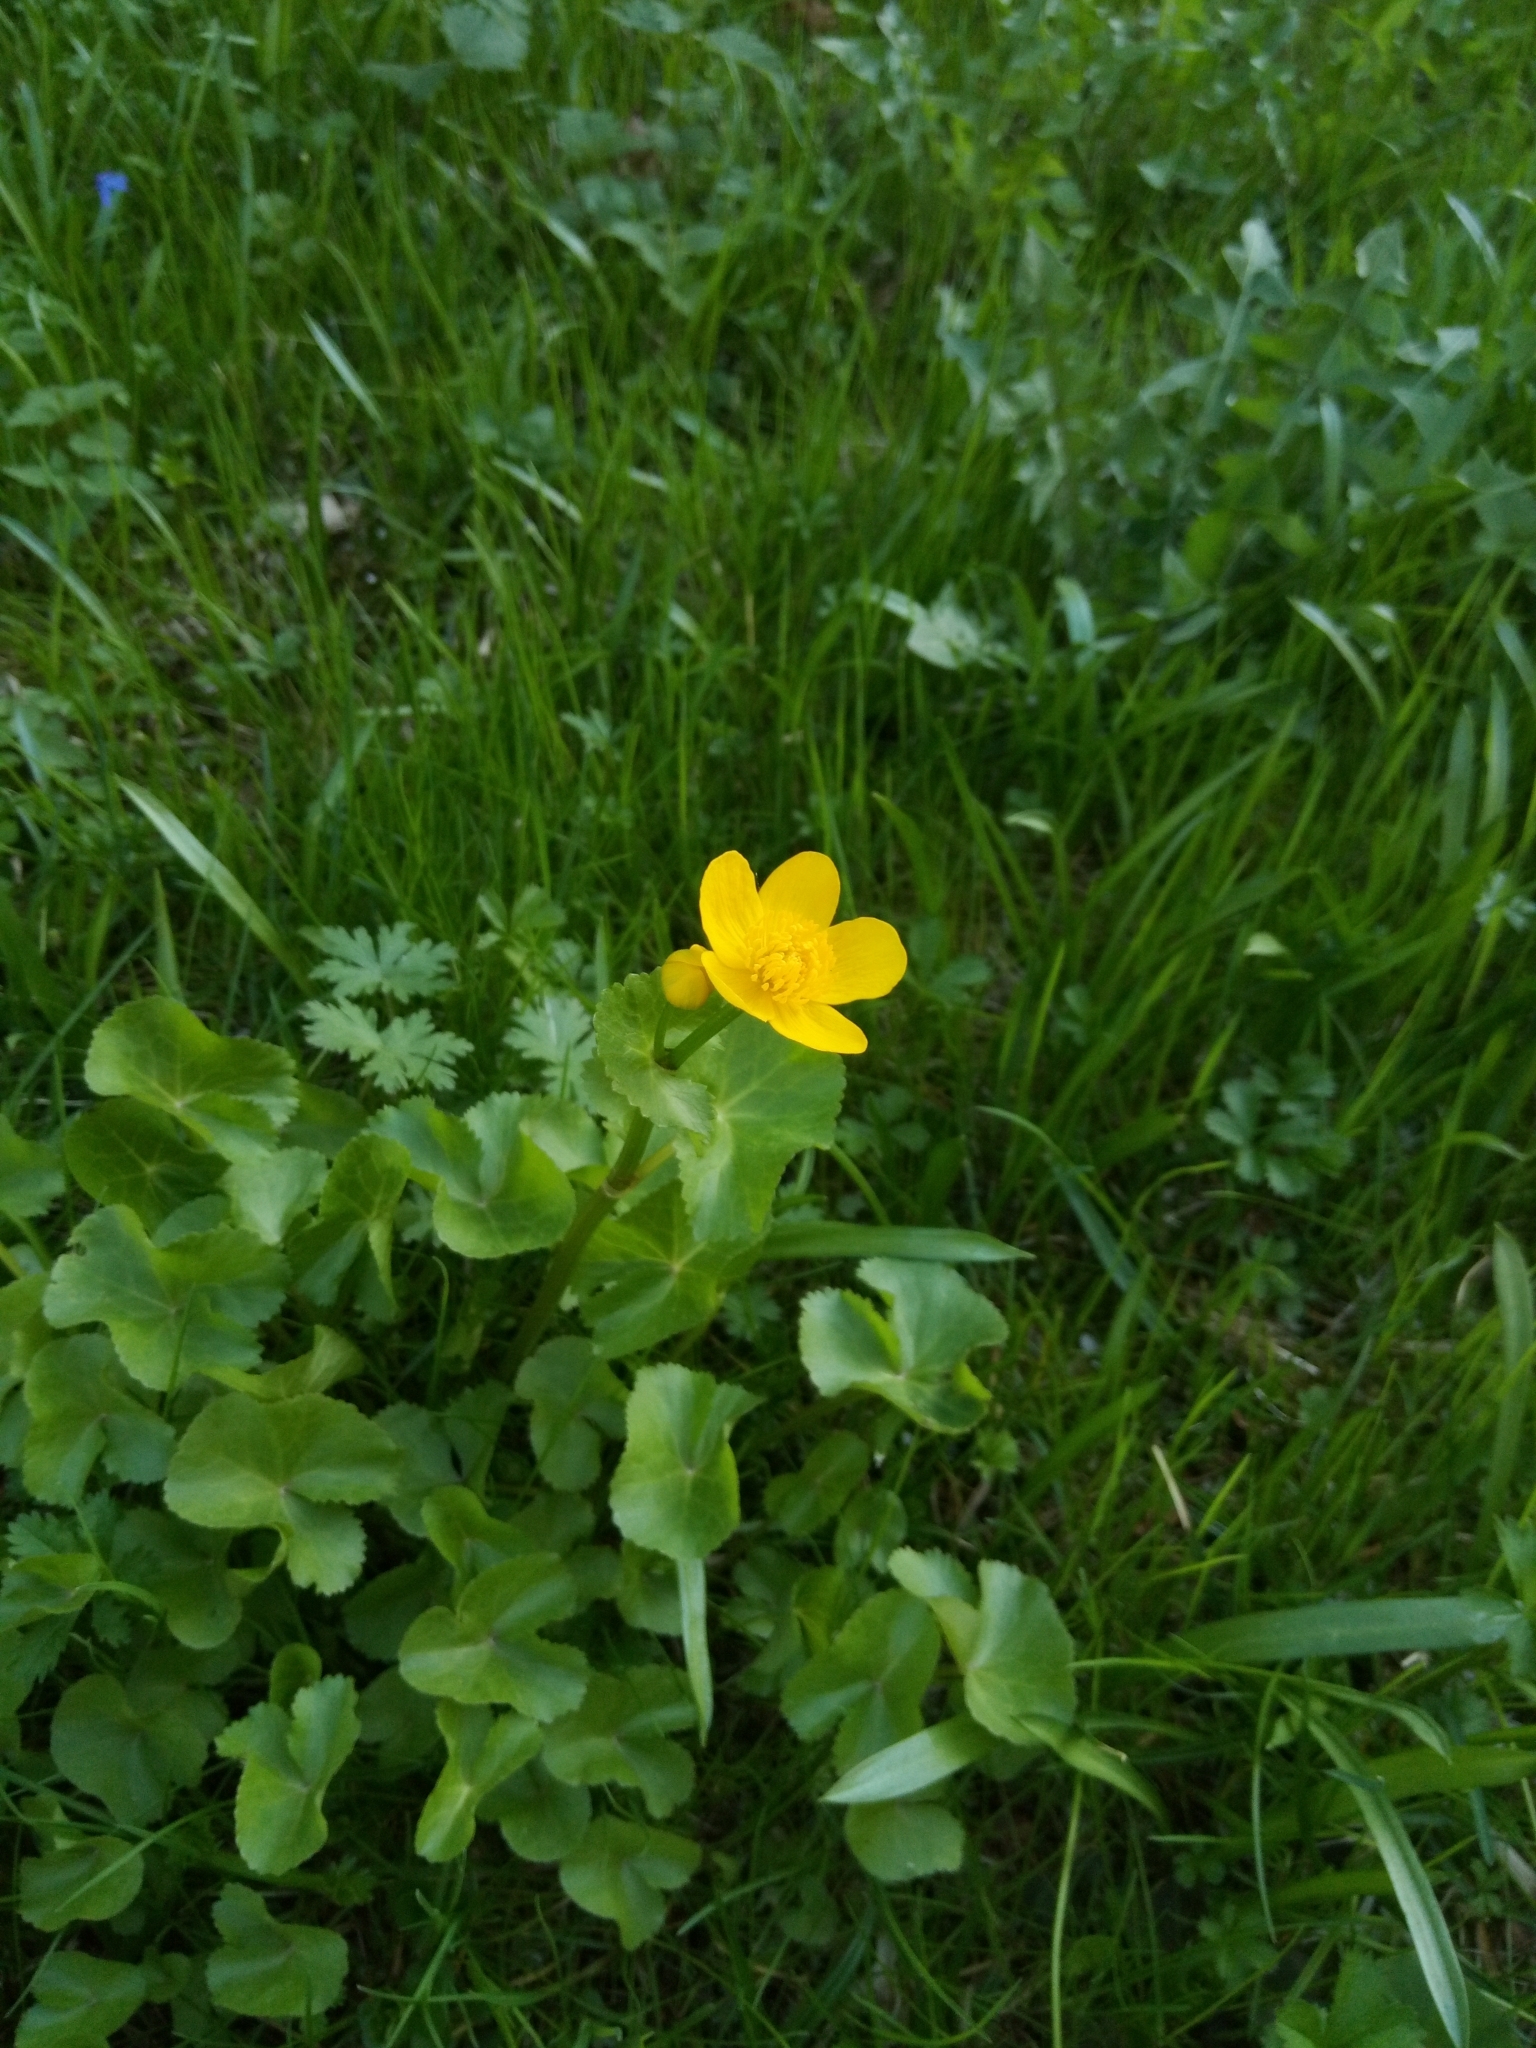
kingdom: Plantae
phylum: Tracheophyta
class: Magnoliopsida
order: Ranunculales
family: Ranunculaceae
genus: Caltha
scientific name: Caltha palustris
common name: Marsh marigold
